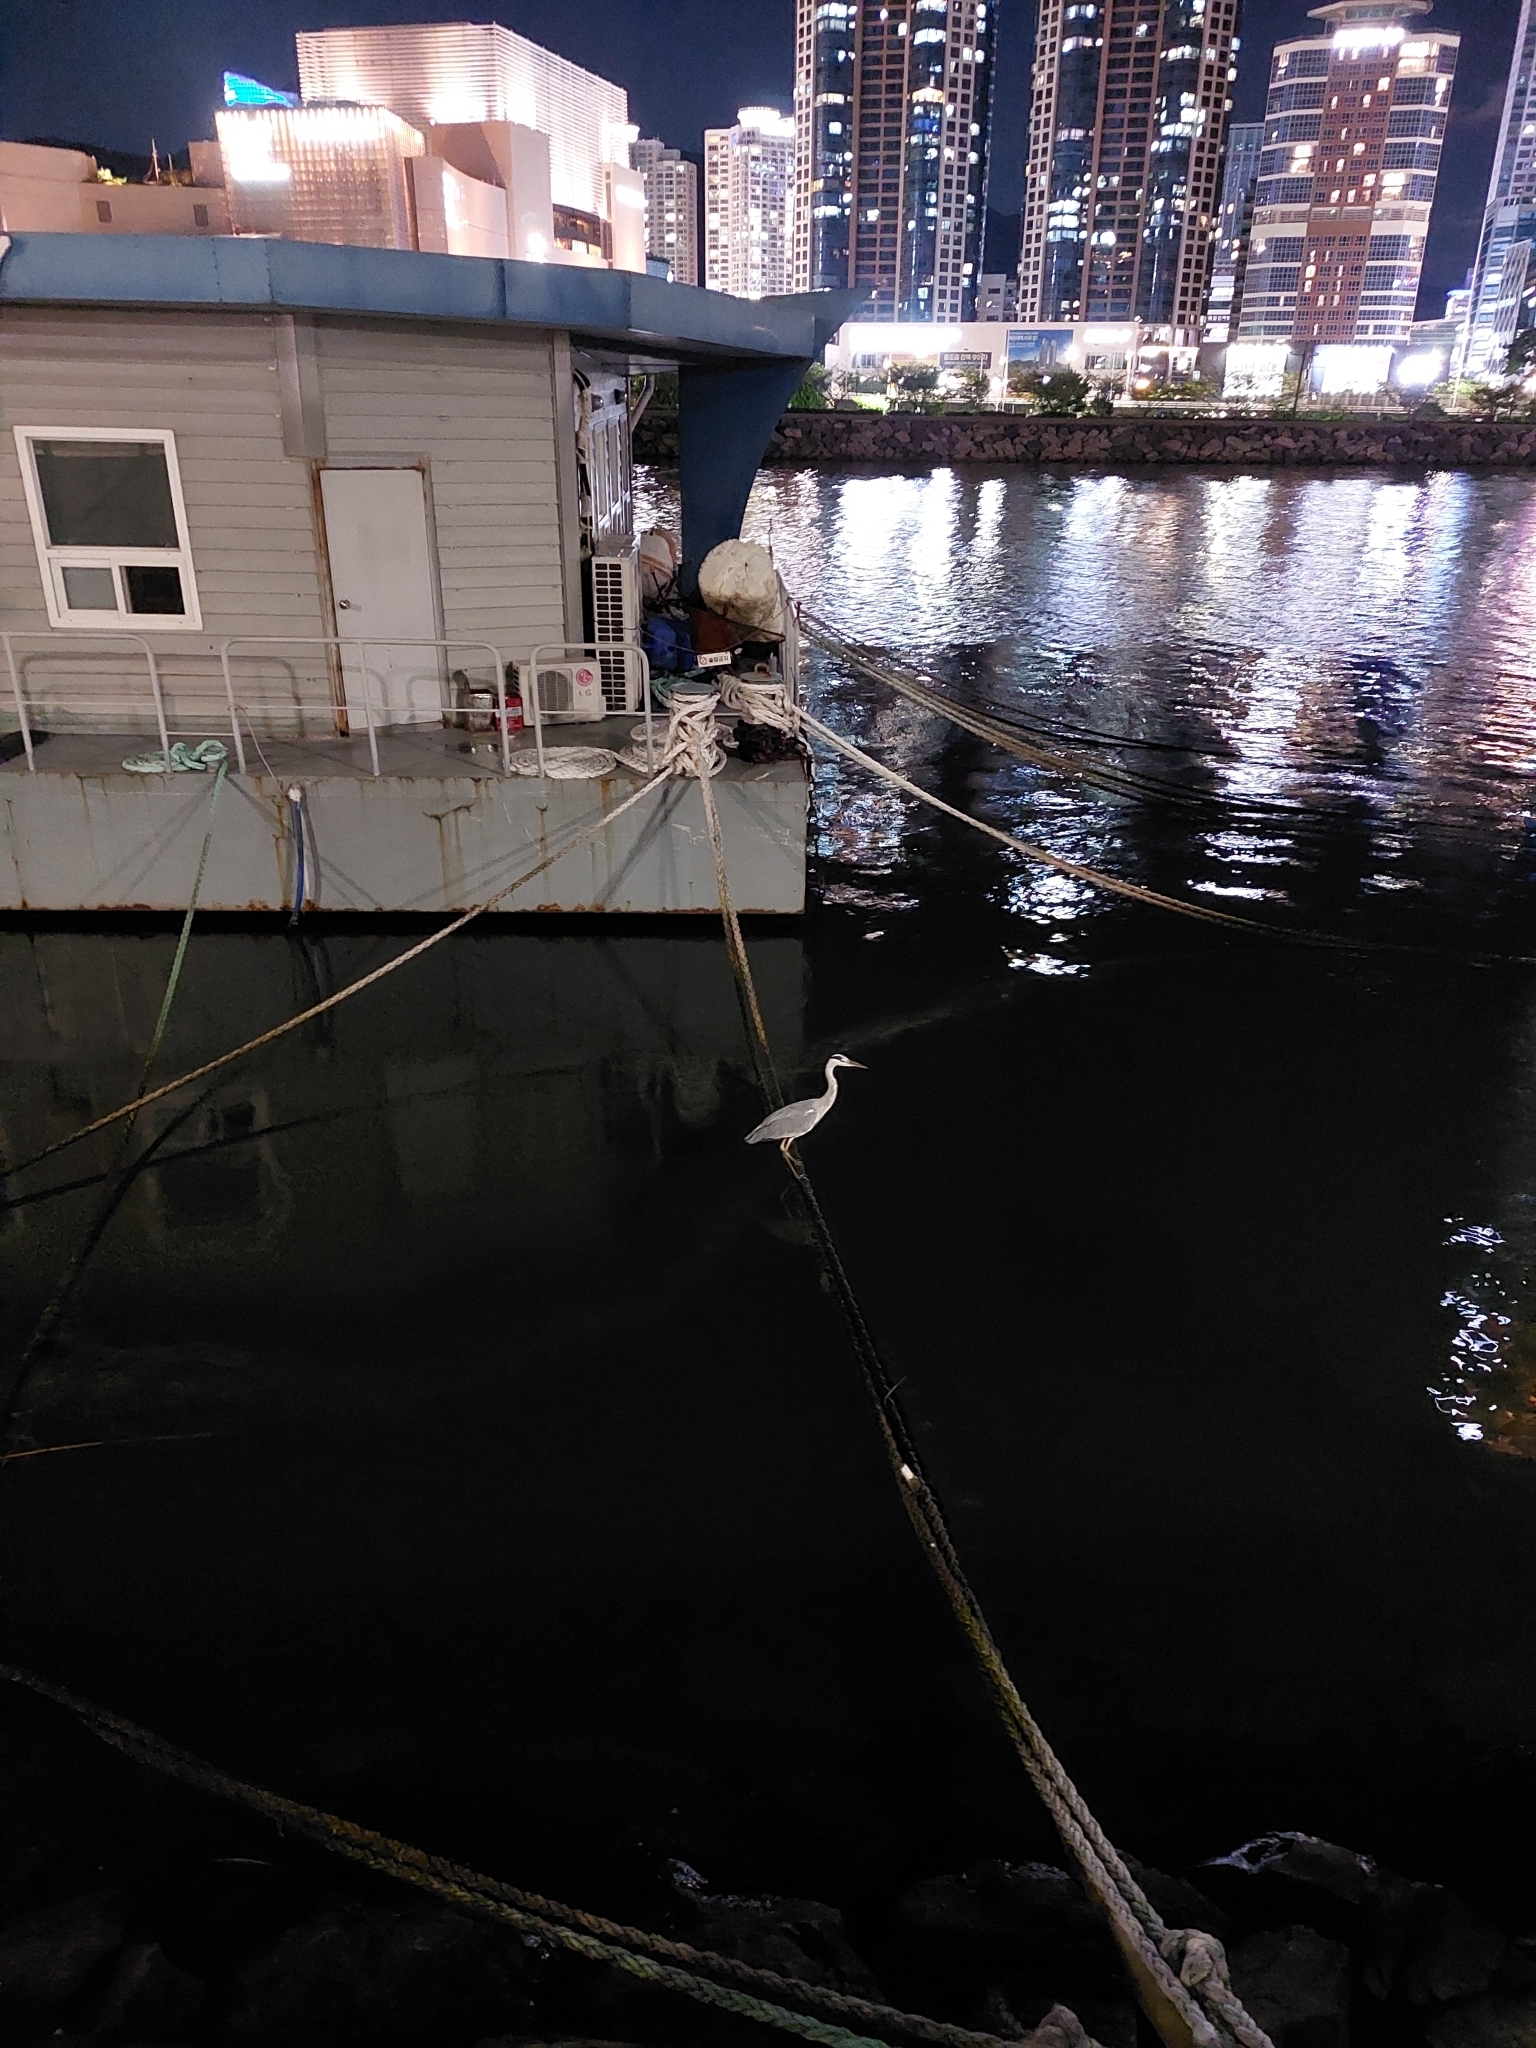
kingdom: Animalia
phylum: Chordata
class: Aves
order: Pelecaniformes
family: Ardeidae
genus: Ardea
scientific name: Ardea cinerea
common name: Grey heron
